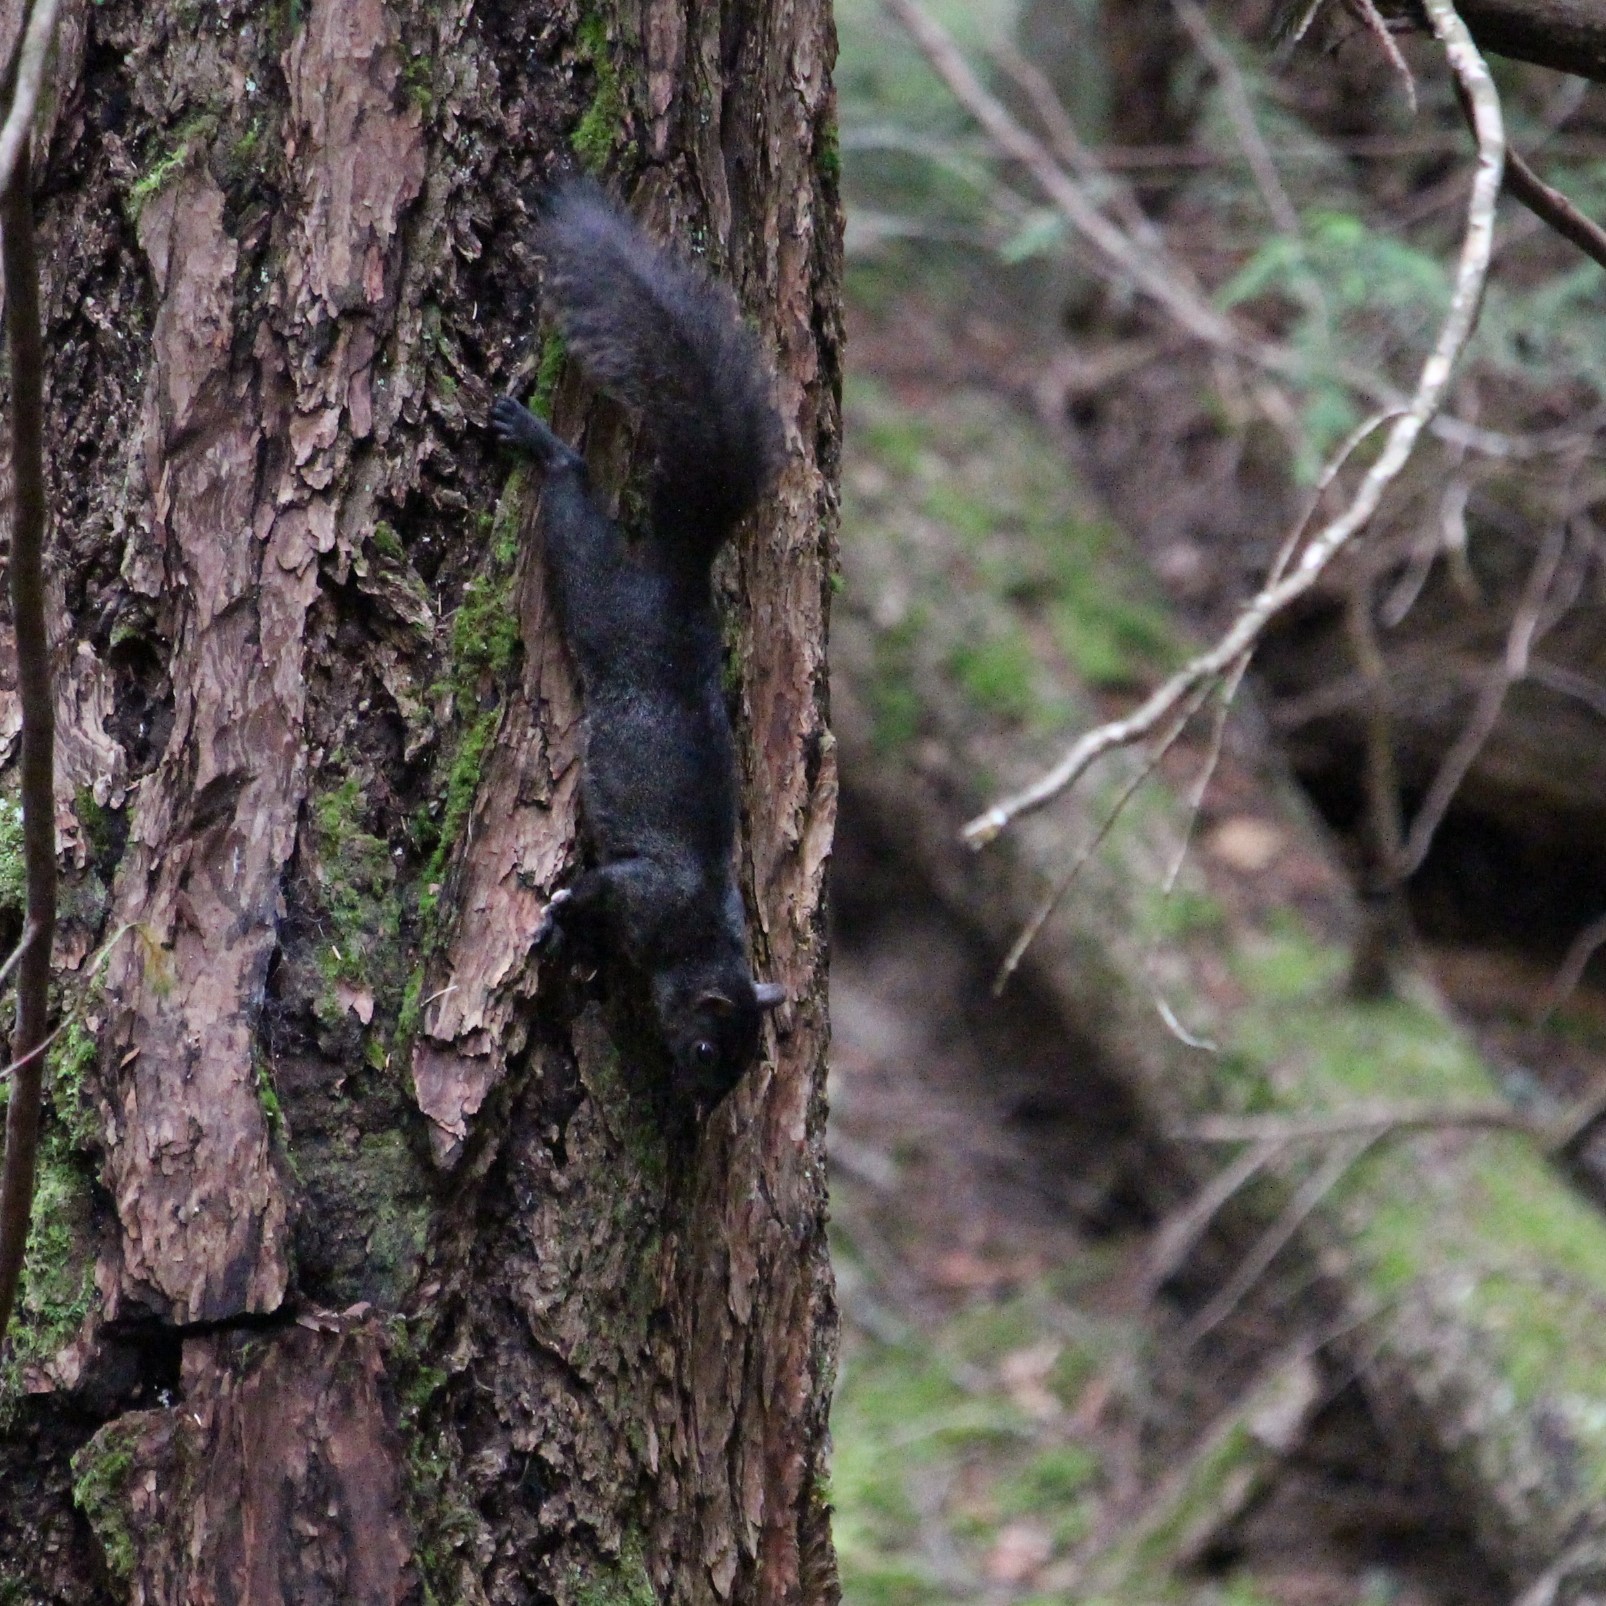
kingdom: Animalia
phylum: Chordata
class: Mammalia
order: Rodentia
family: Sciuridae
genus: Sciurus
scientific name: Sciurus carolinensis
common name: Eastern gray squirrel
